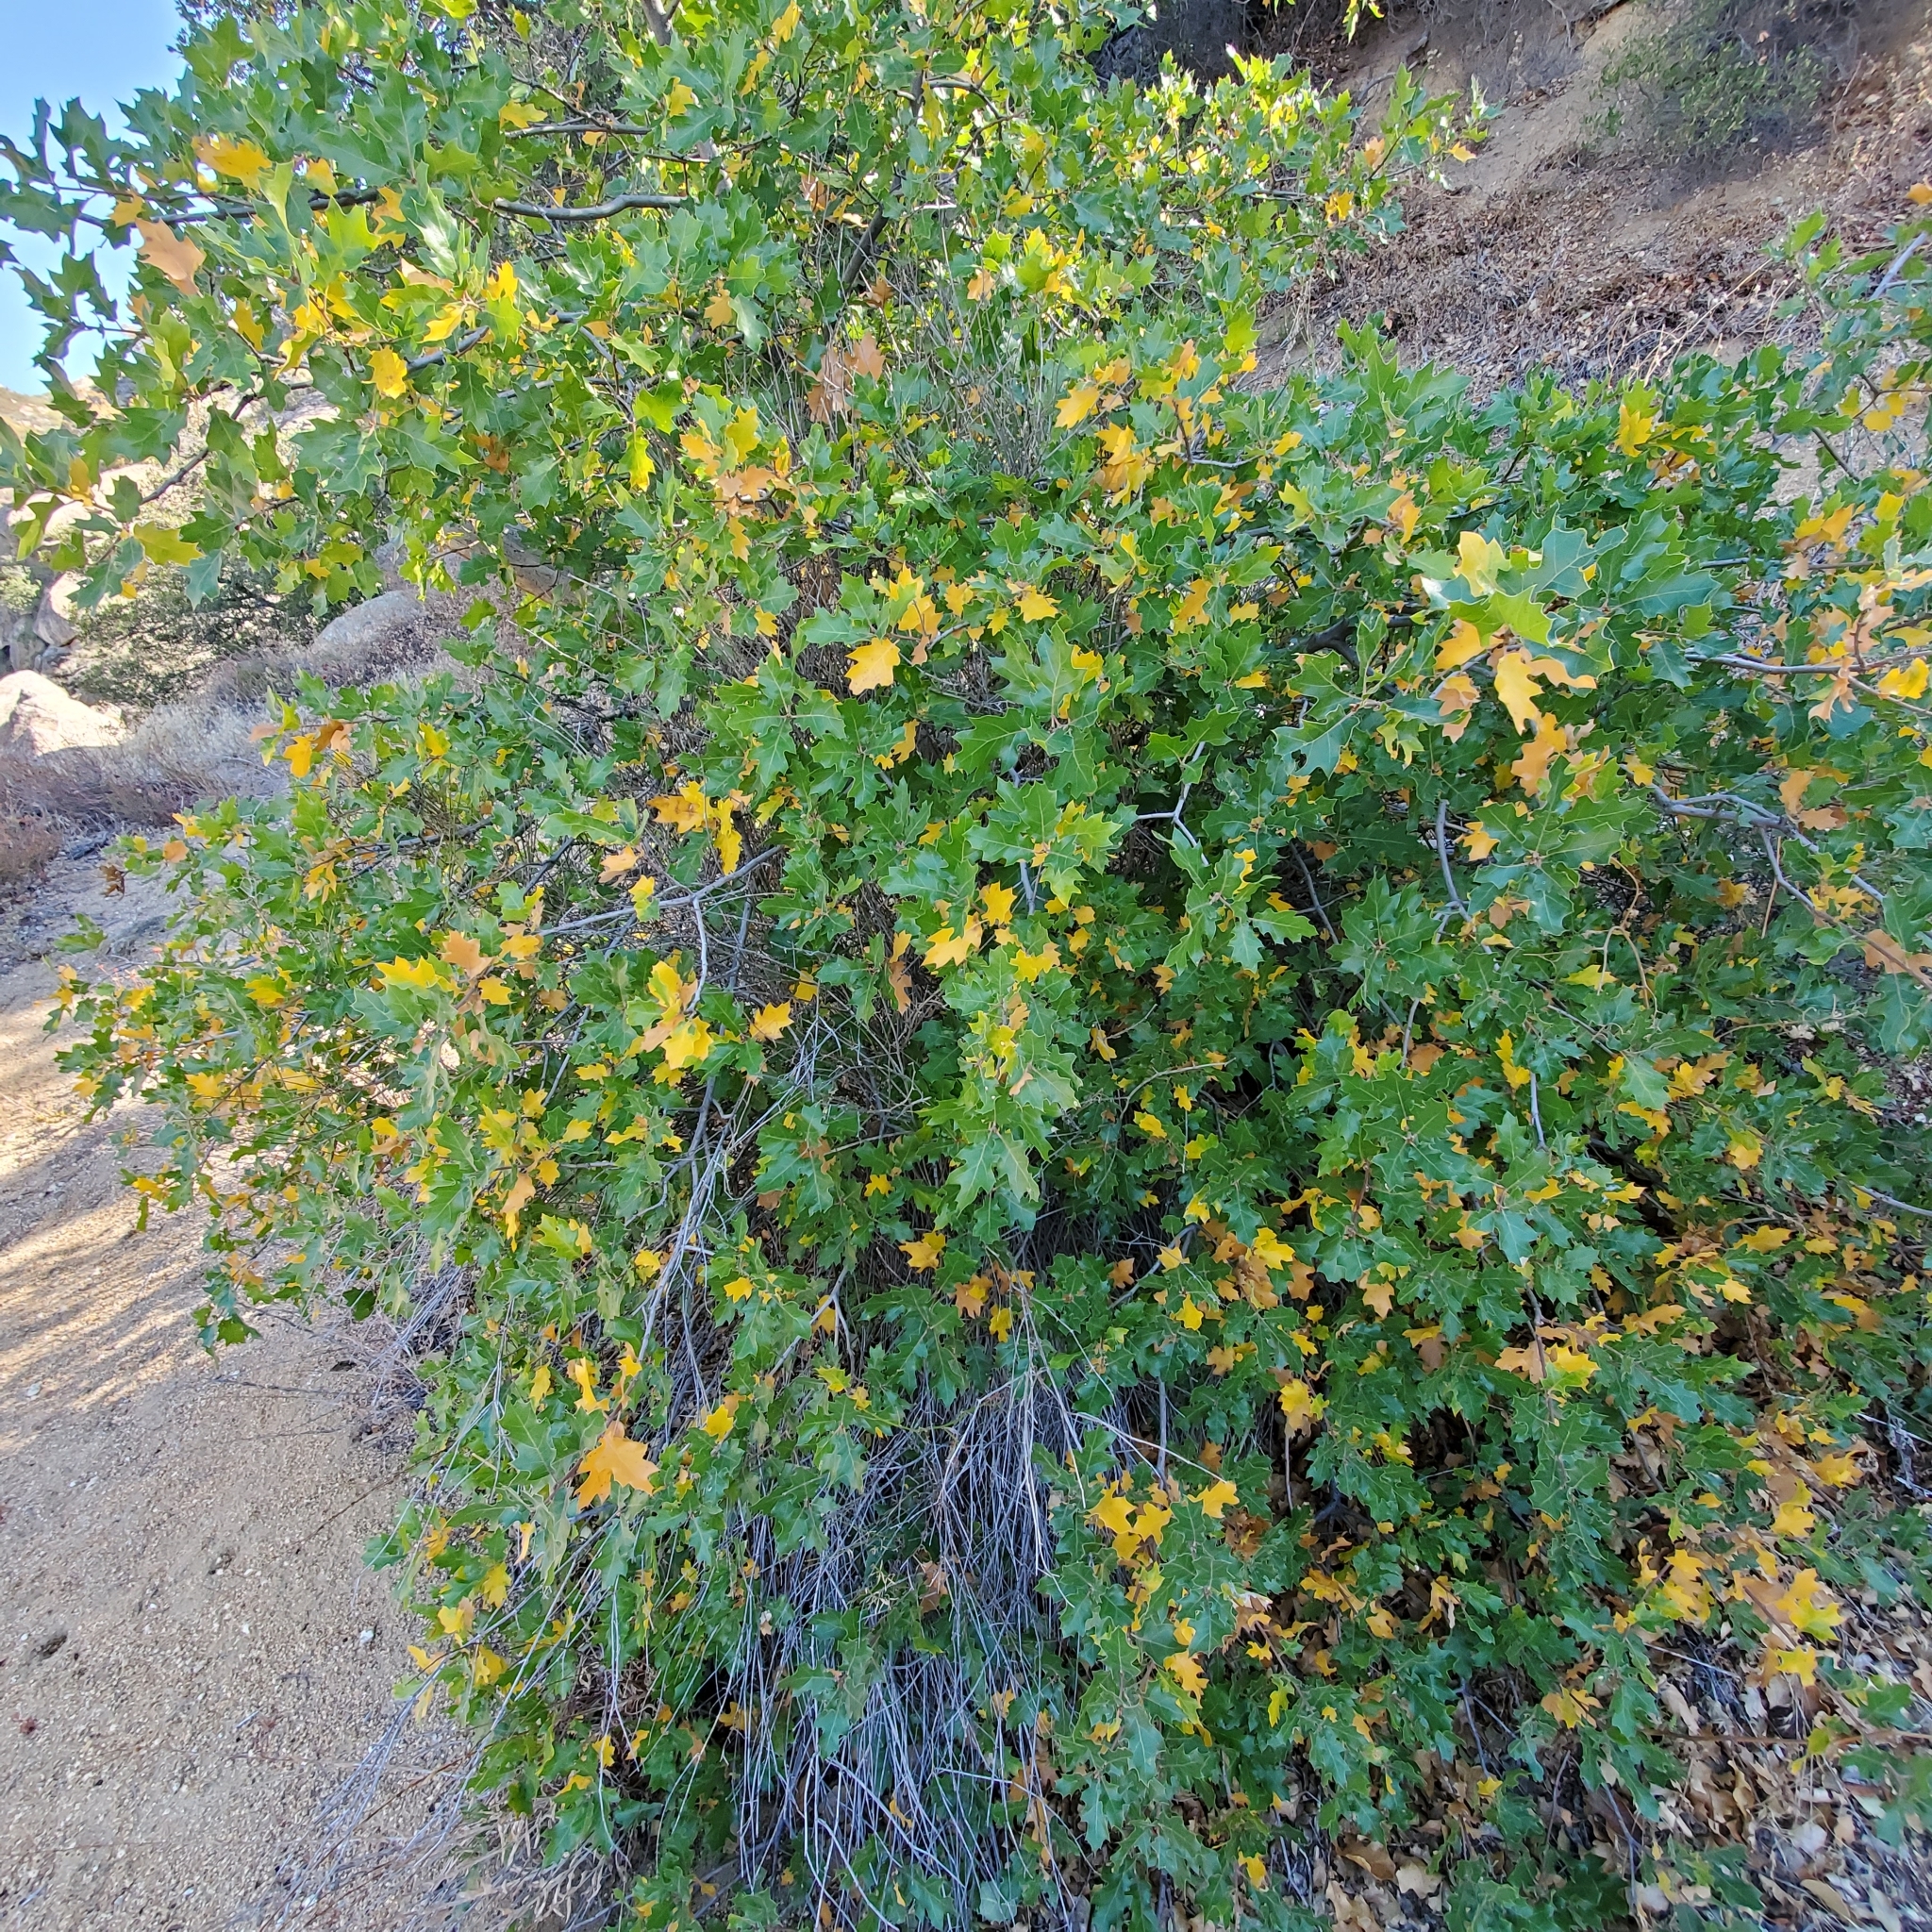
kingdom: Plantae
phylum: Tracheophyta
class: Magnoliopsida
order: Fagales
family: Fagaceae
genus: Quercus
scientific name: Quercus morehus
